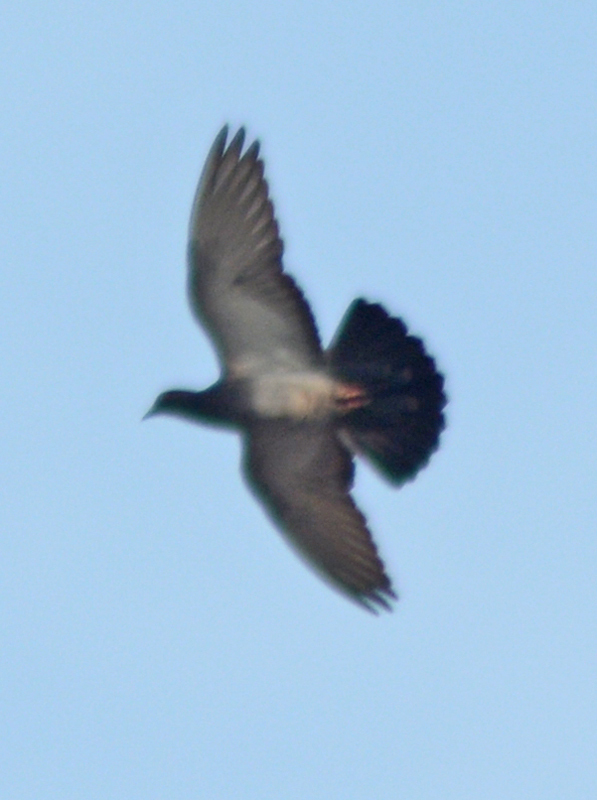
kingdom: Animalia
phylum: Chordata
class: Aves
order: Columbiformes
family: Columbidae
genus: Columba
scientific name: Columba livia
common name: Rock pigeon
